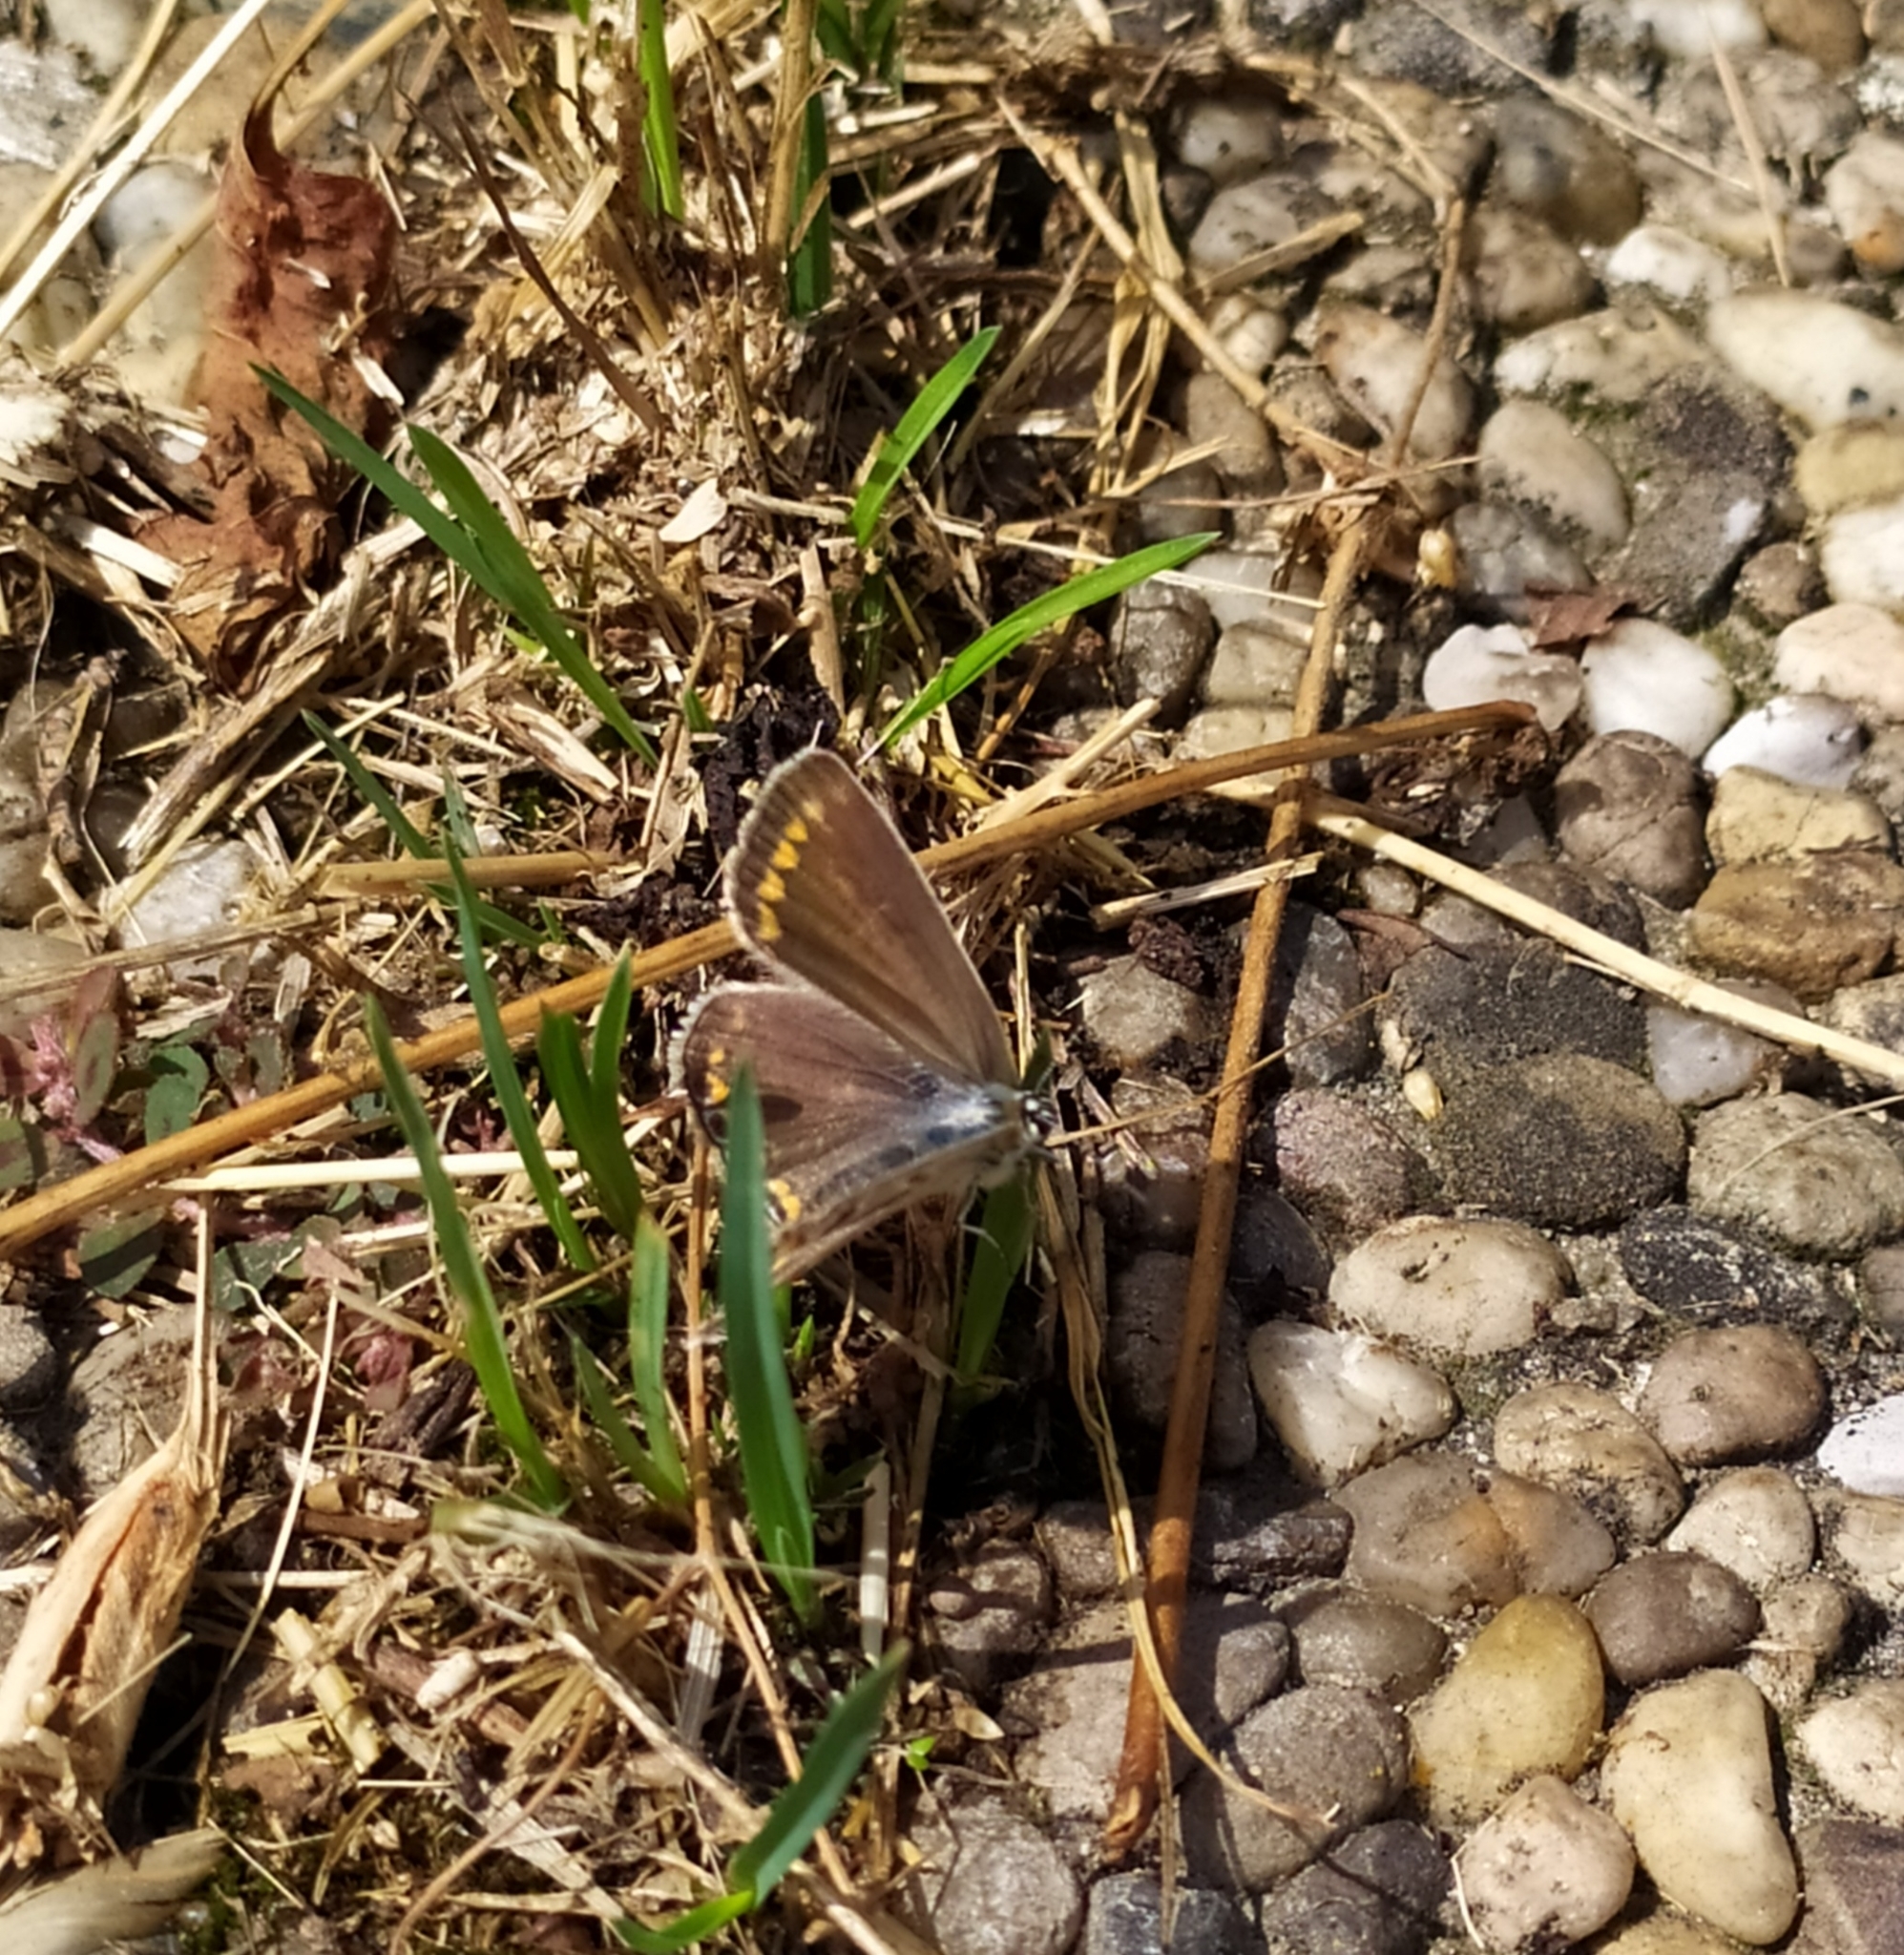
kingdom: Animalia
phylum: Arthropoda
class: Insecta
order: Lepidoptera
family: Lycaenidae
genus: Polyommatus
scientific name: Polyommatus icarus
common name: Common blue
